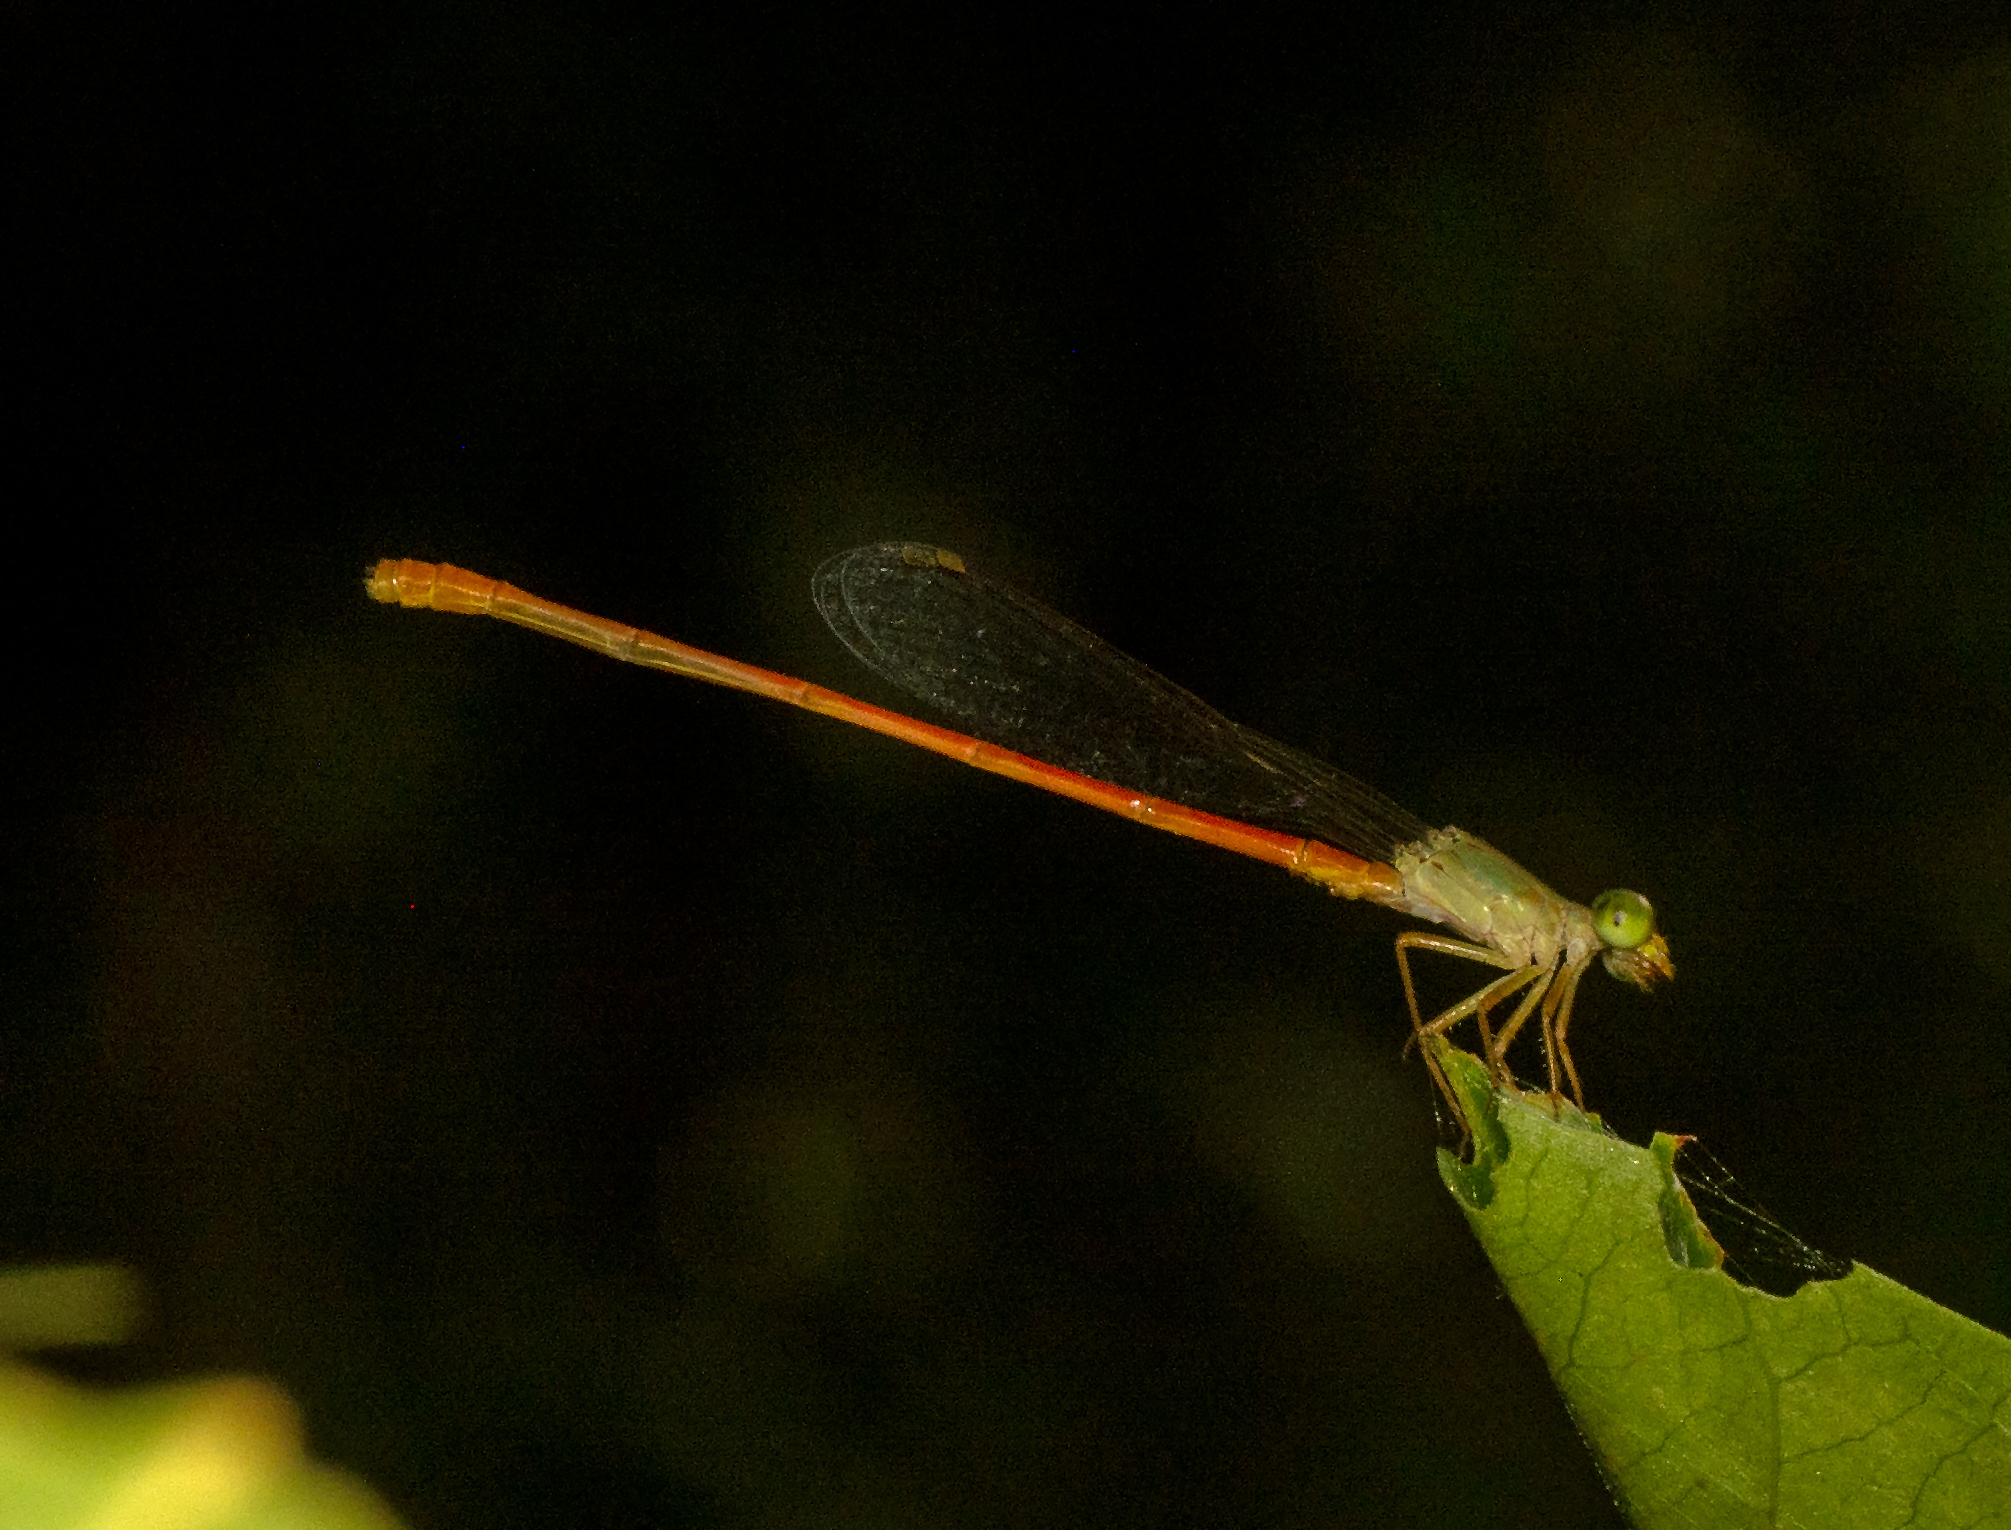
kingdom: Animalia
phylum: Arthropoda
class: Insecta
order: Odonata
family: Coenagrionidae
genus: Ceriagrion
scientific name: Ceriagrion aeruginosum
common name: Redtail
